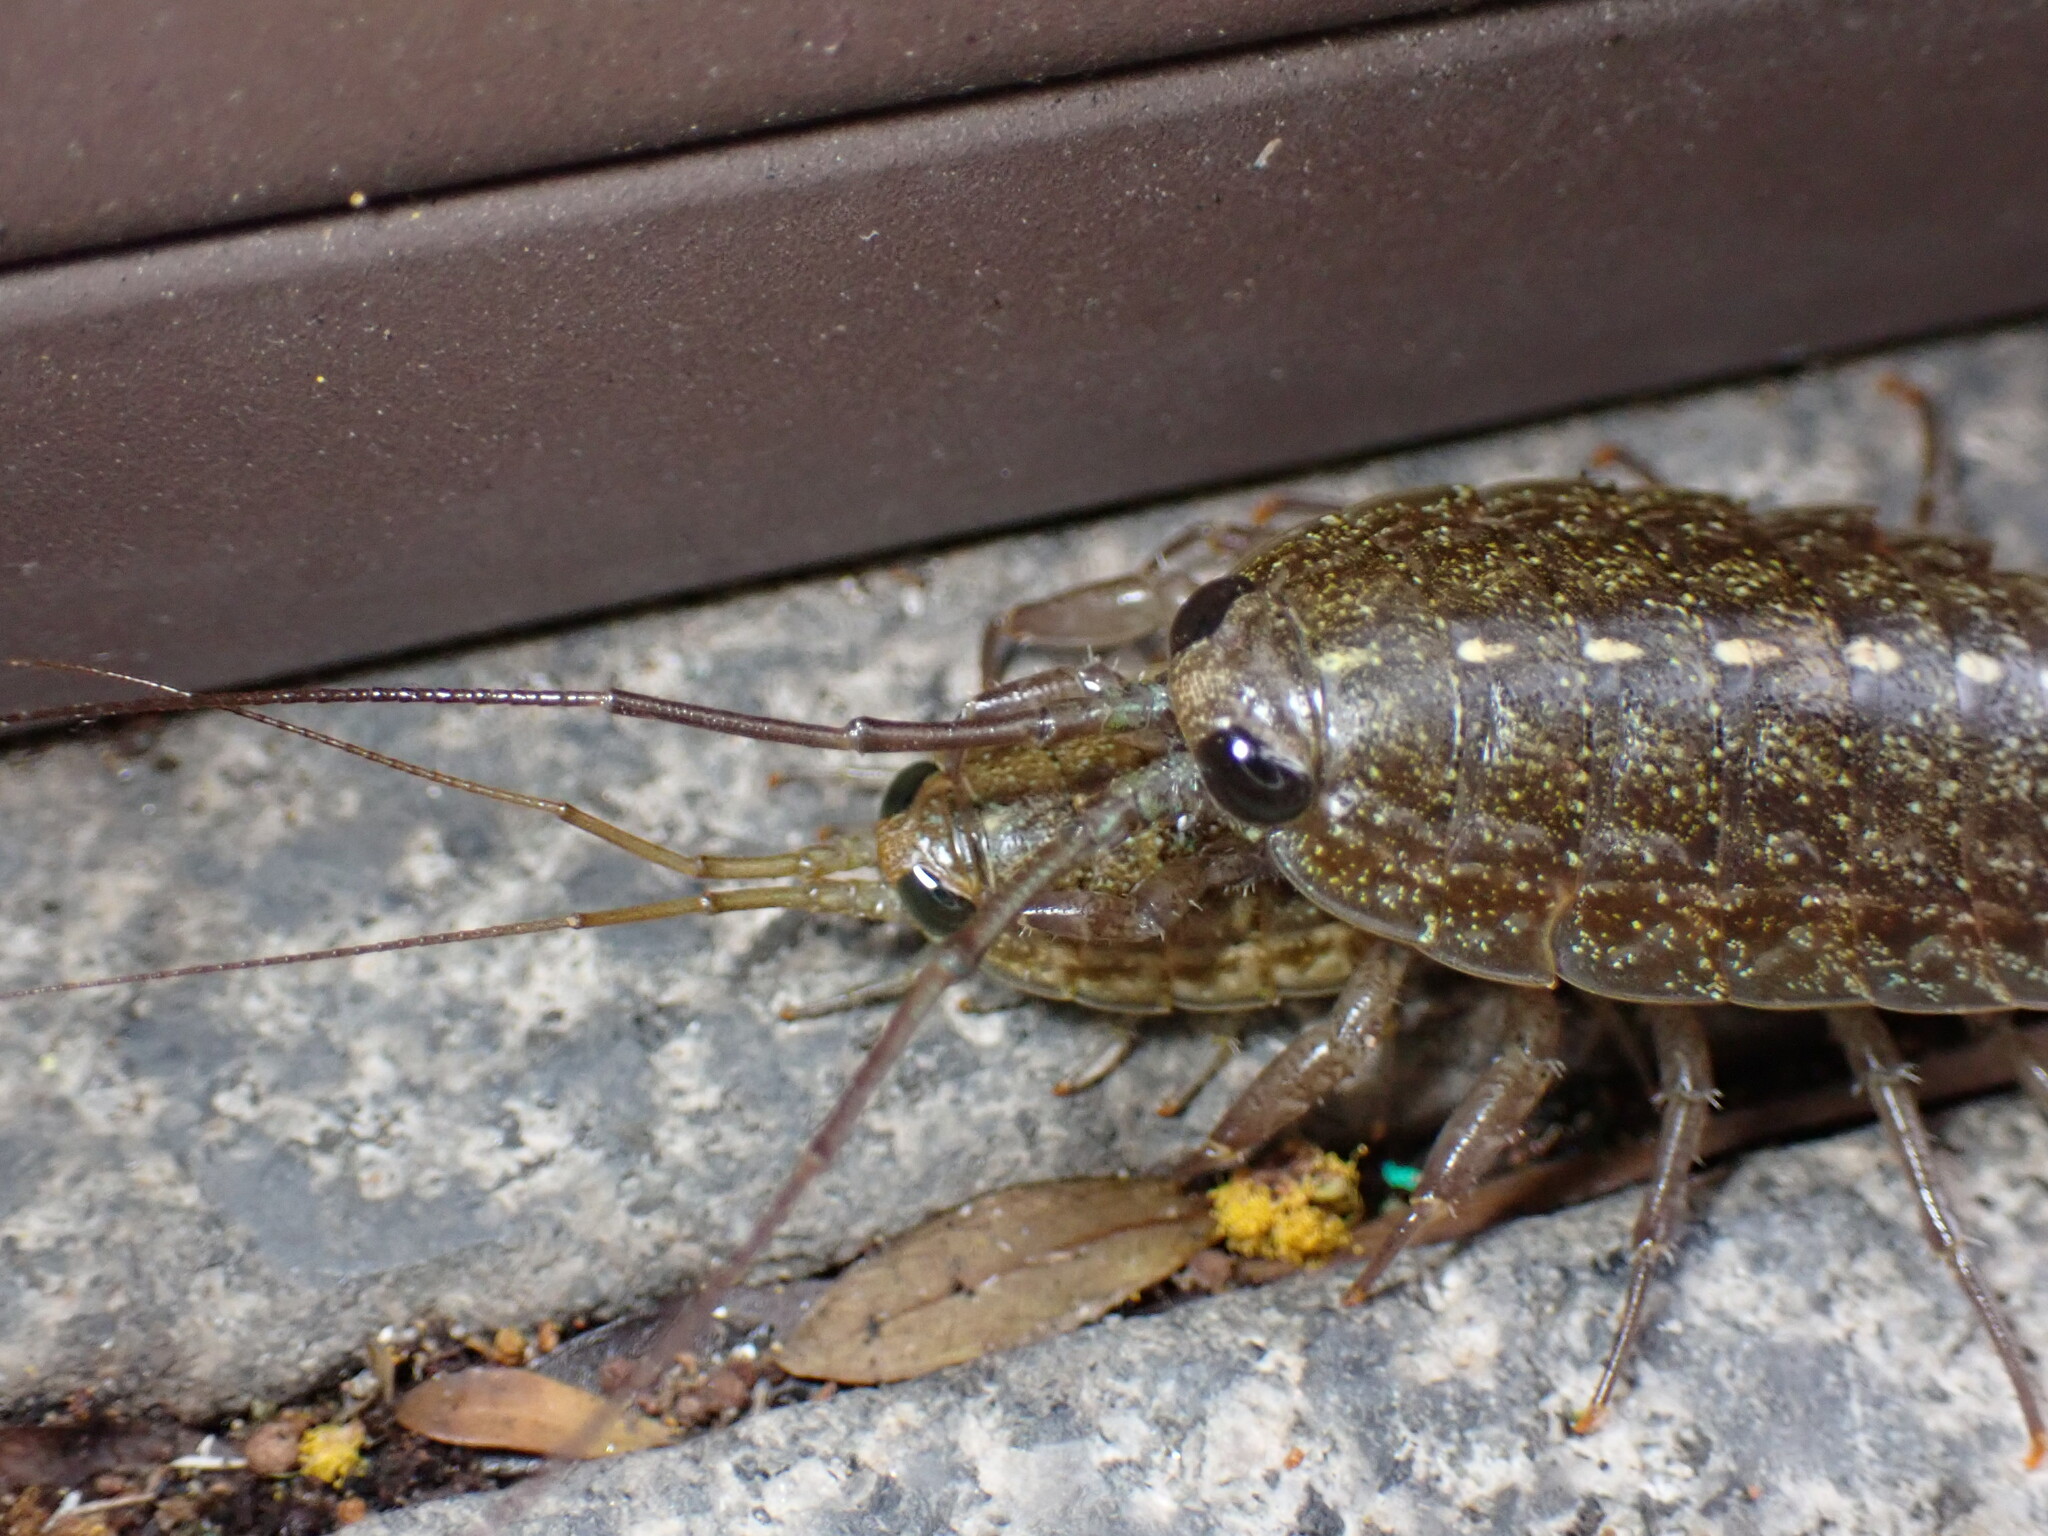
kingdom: Animalia
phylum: Arthropoda
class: Malacostraca
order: Isopoda
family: Ligiidae
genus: Ligia
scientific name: Ligia exotica
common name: Wharf roach
